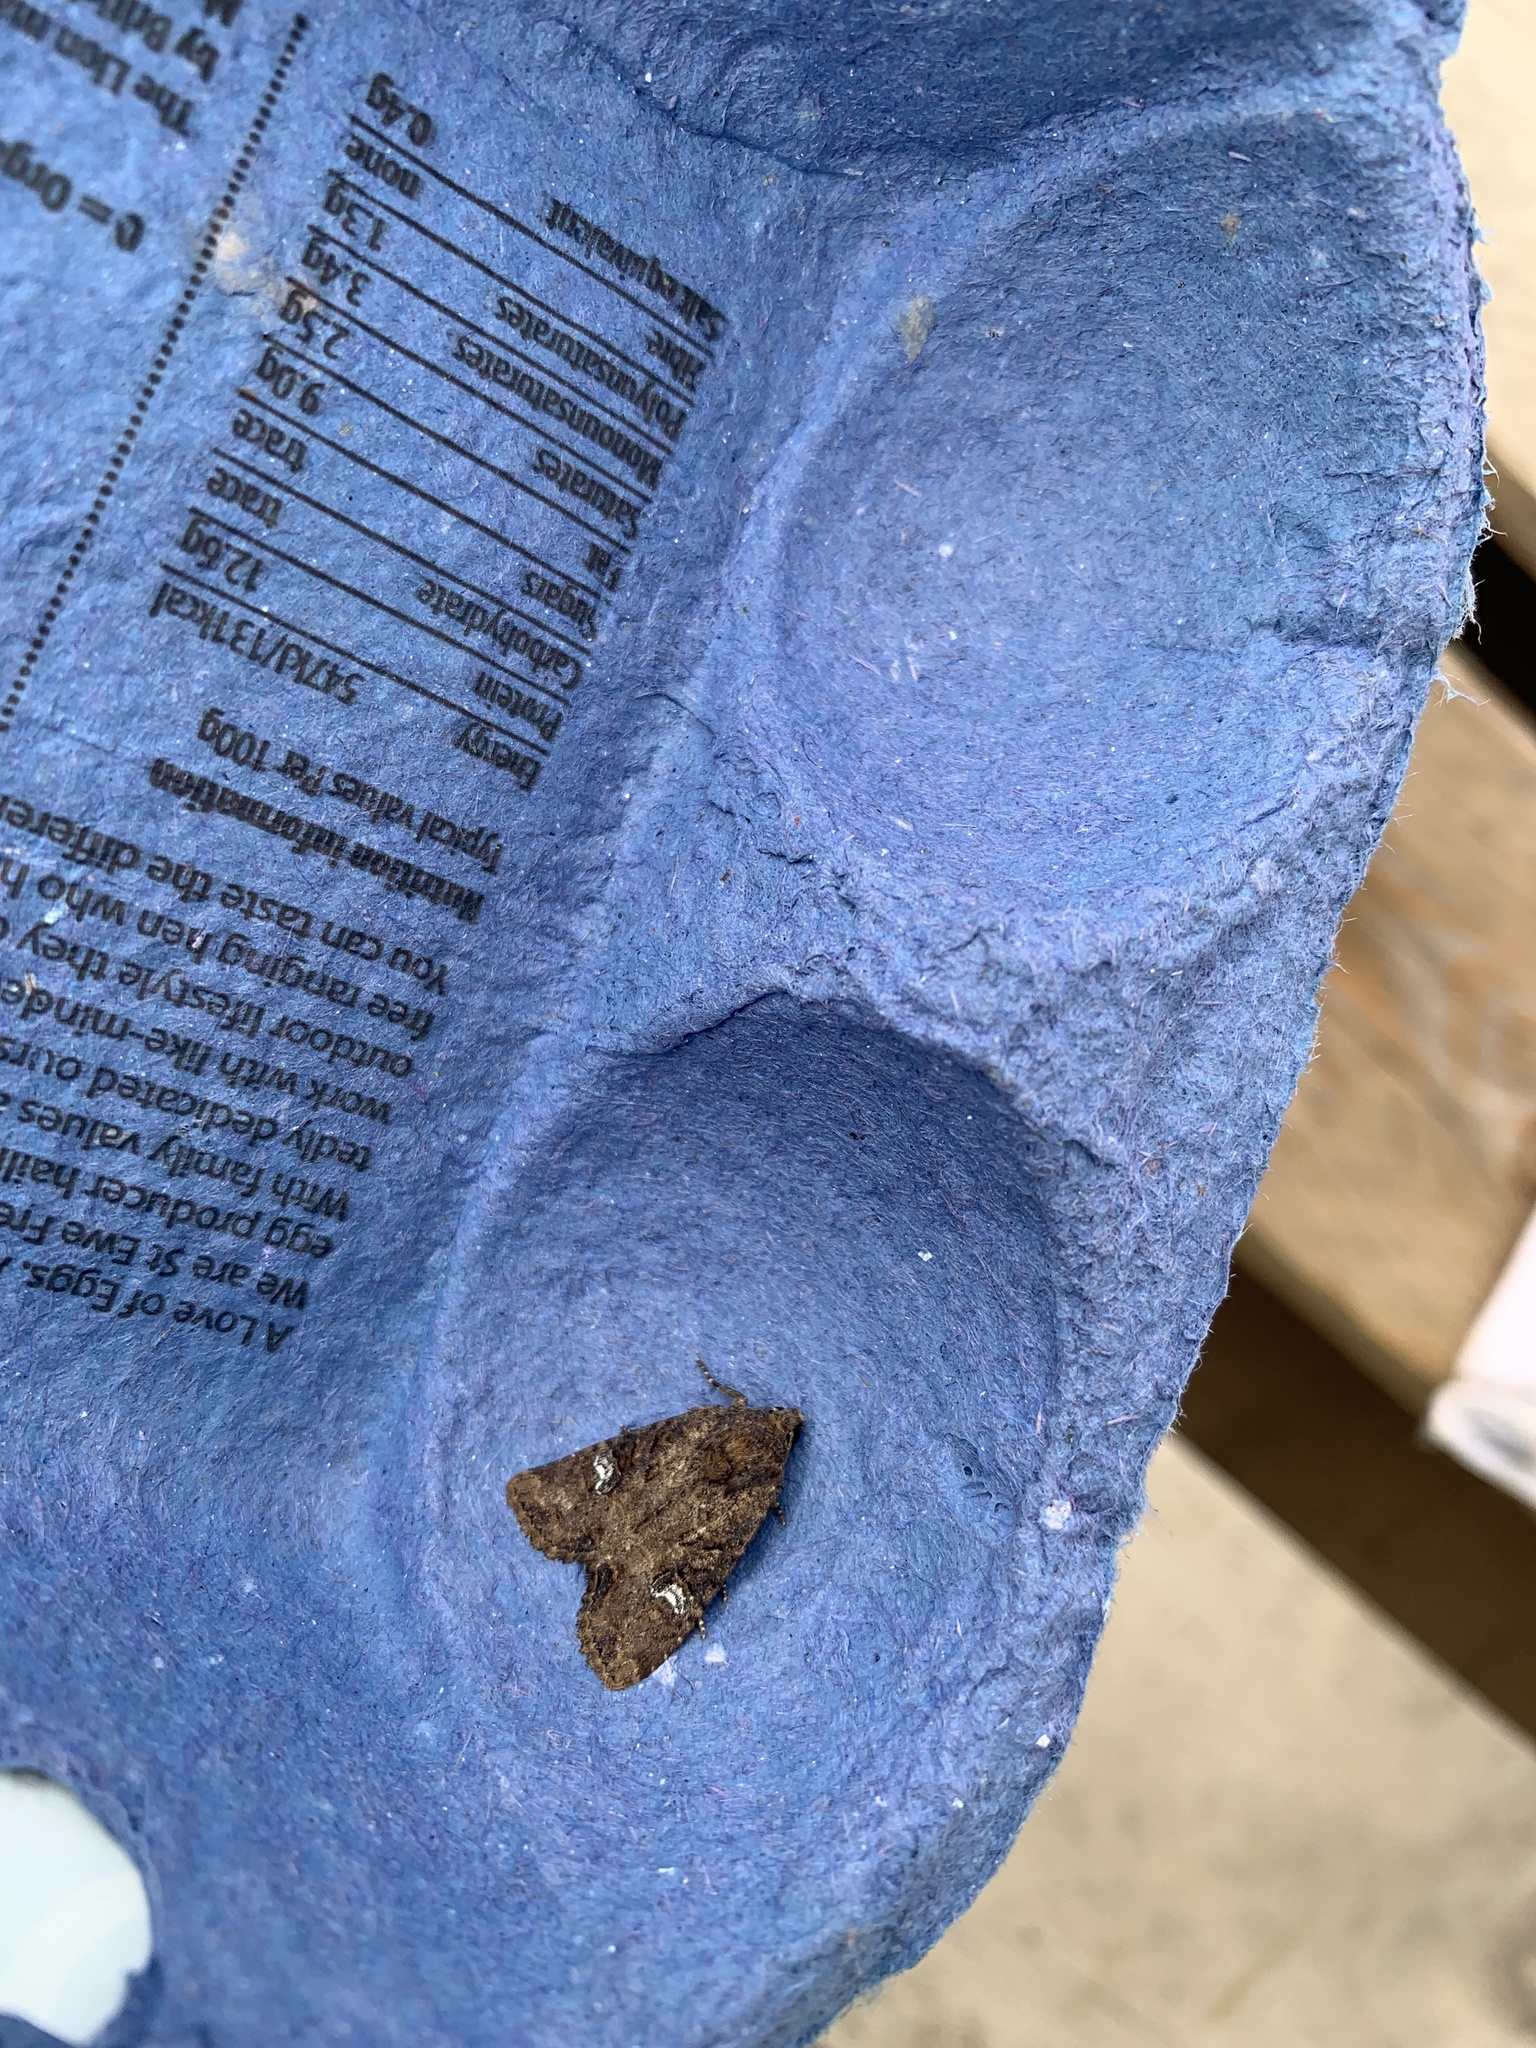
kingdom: Animalia
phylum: Arthropoda
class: Insecta
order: Lepidoptera
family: Noctuidae
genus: Mesapamea
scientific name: Mesapamea secalis
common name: Common rustic
